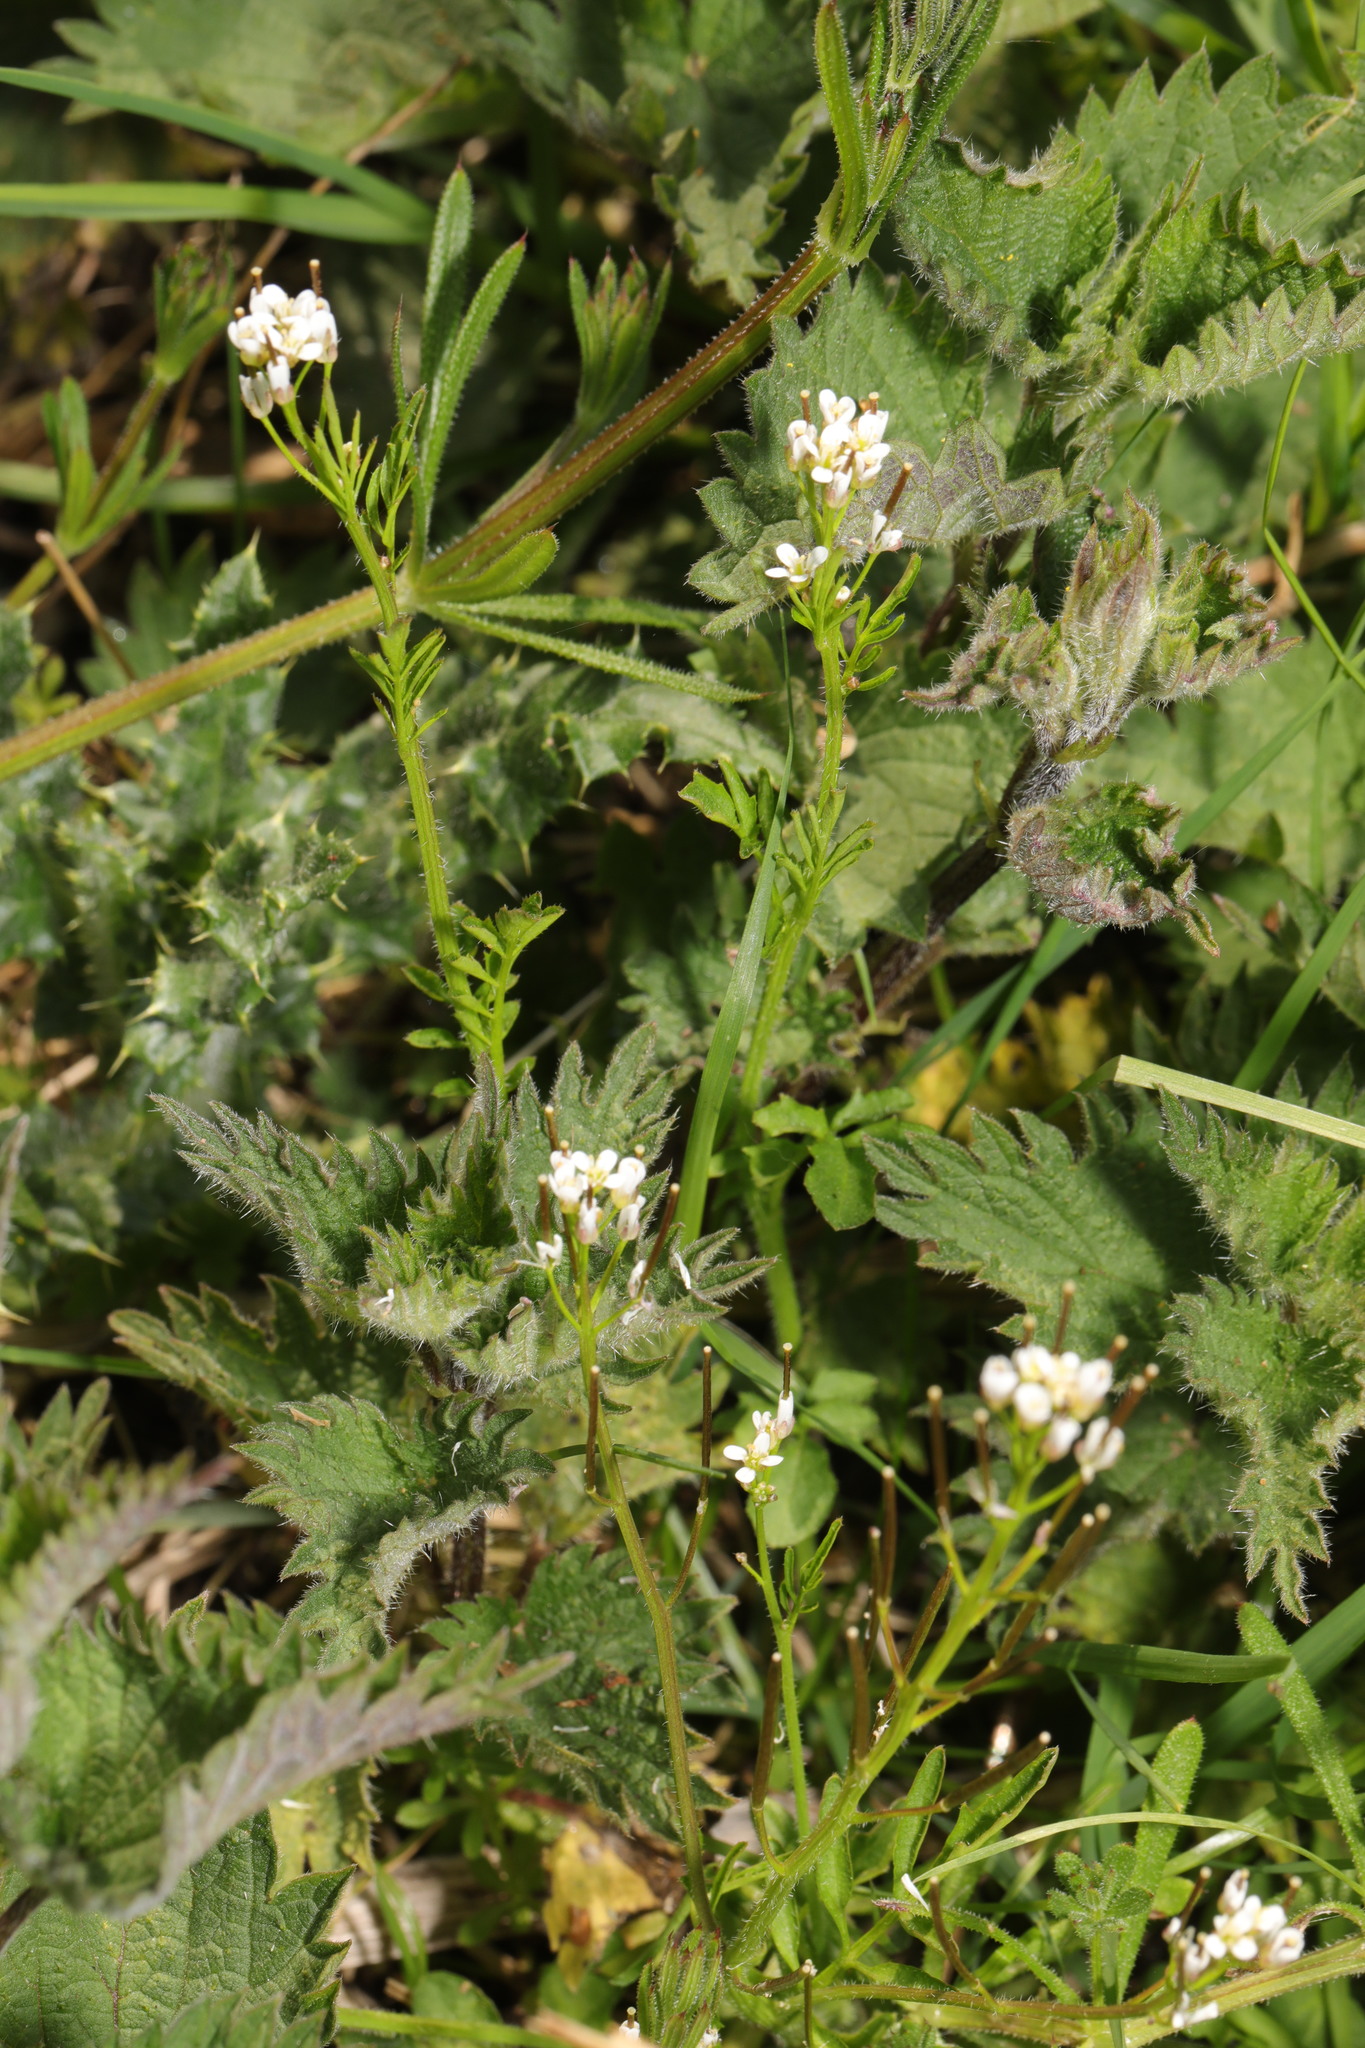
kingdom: Plantae
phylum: Tracheophyta
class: Magnoliopsida
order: Brassicales
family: Brassicaceae
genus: Cardamine
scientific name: Cardamine hirsuta
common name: Hairy bittercress
